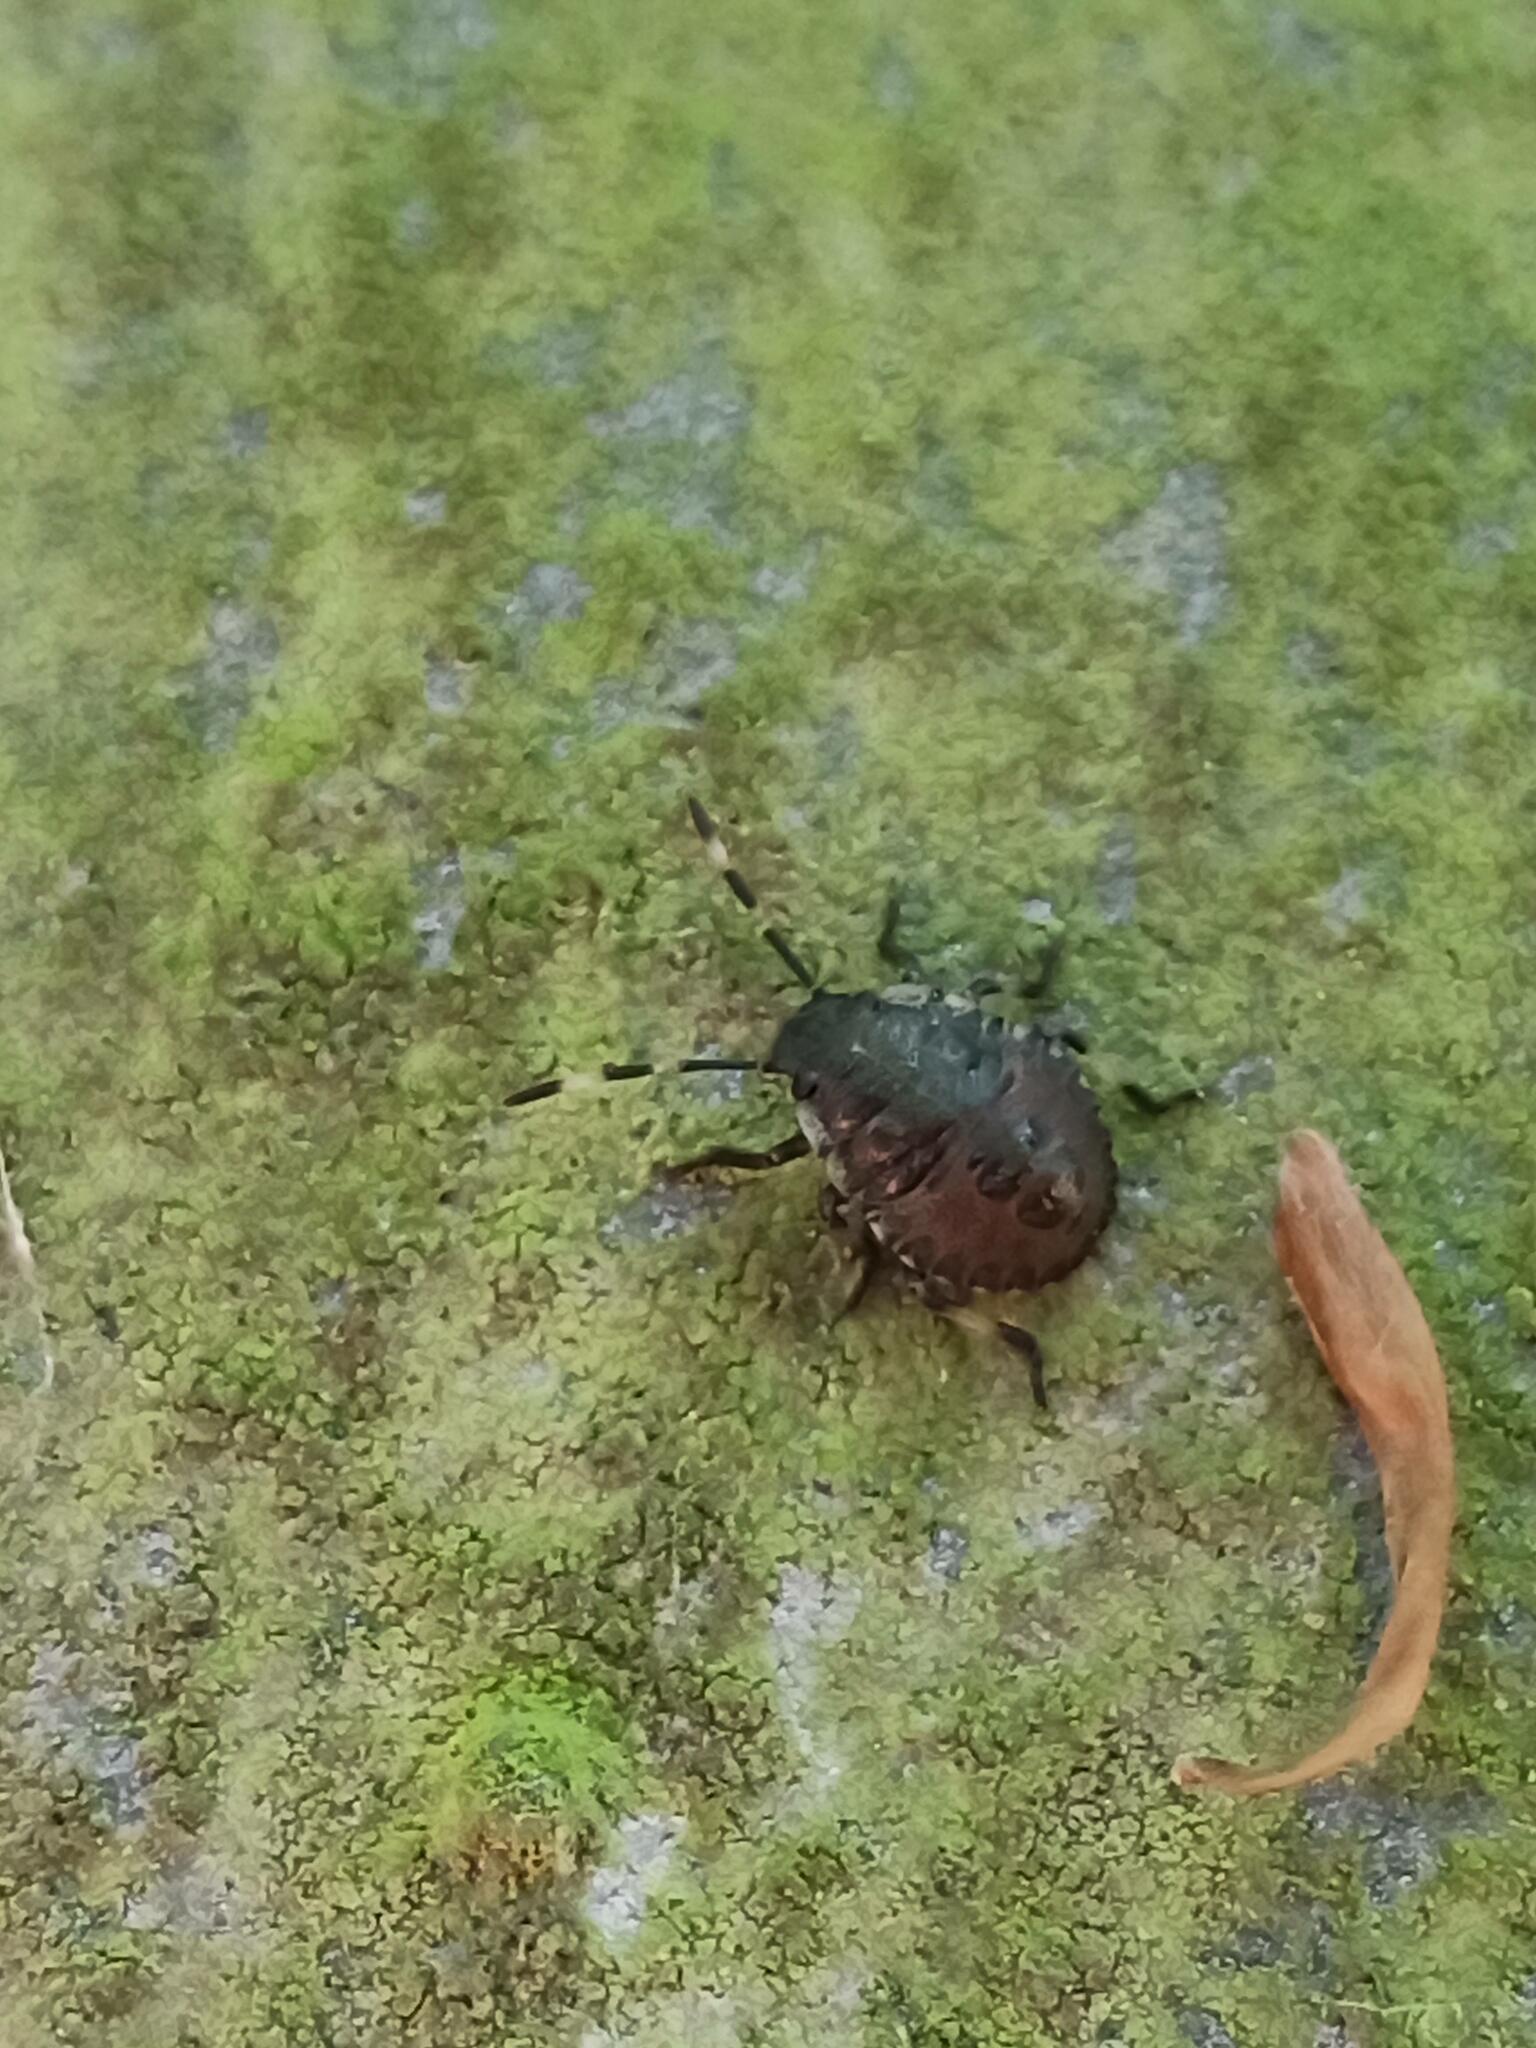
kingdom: Animalia
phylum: Arthropoda
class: Insecta
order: Hemiptera
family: Pentatomidae
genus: Rhaphigaster
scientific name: Rhaphigaster nebulosa
